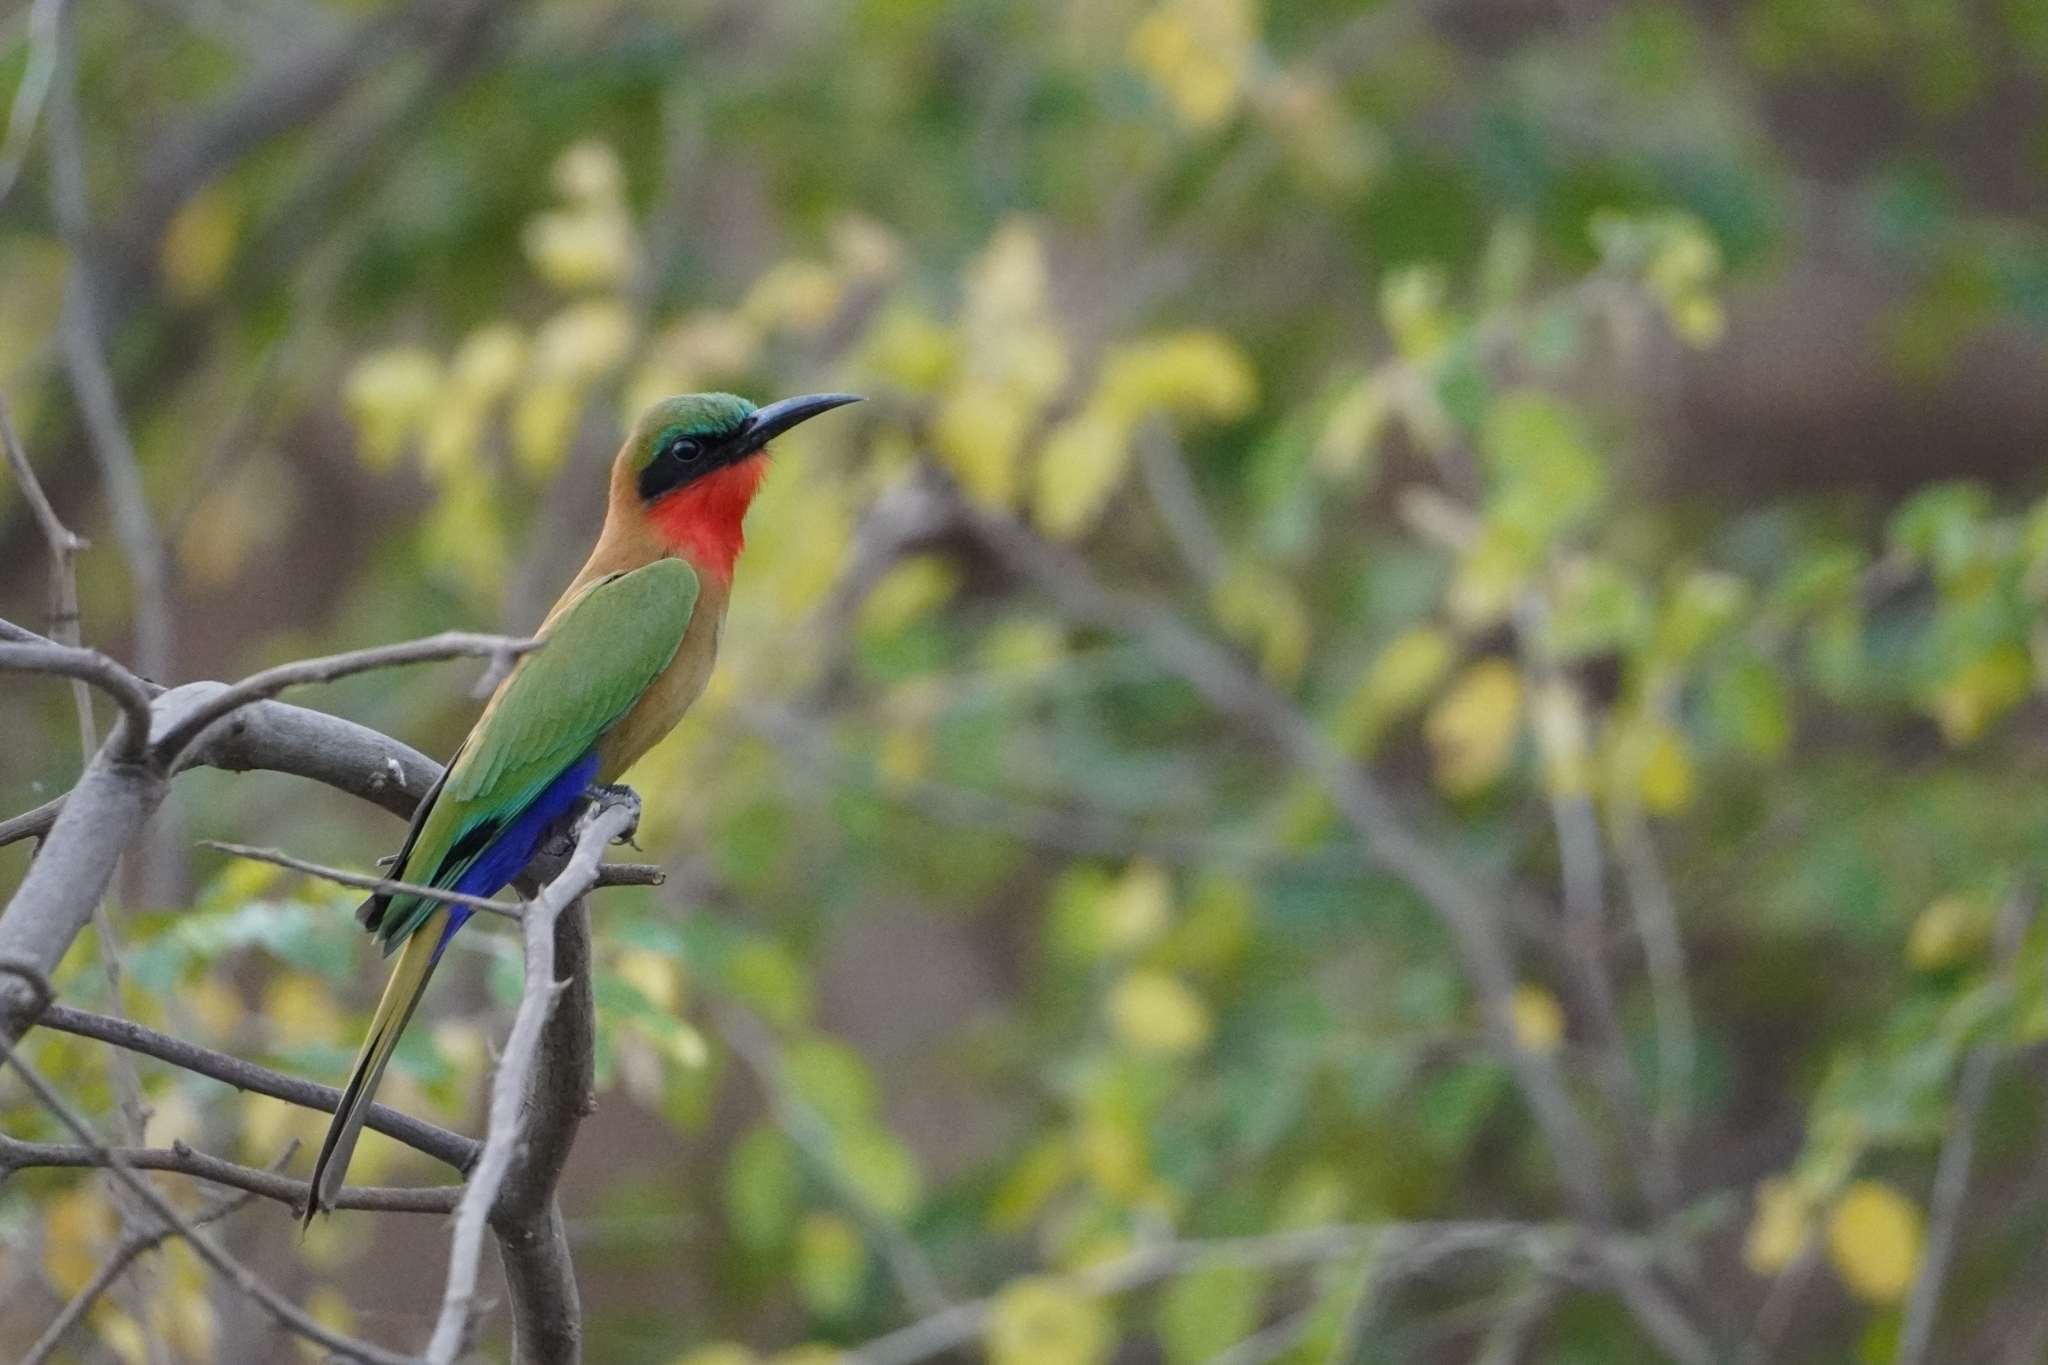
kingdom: Animalia
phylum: Chordata
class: Aves
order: Coraciiformes
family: Meropidae
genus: Merops
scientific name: Merops bulocki
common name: Red-throated bee-eater
